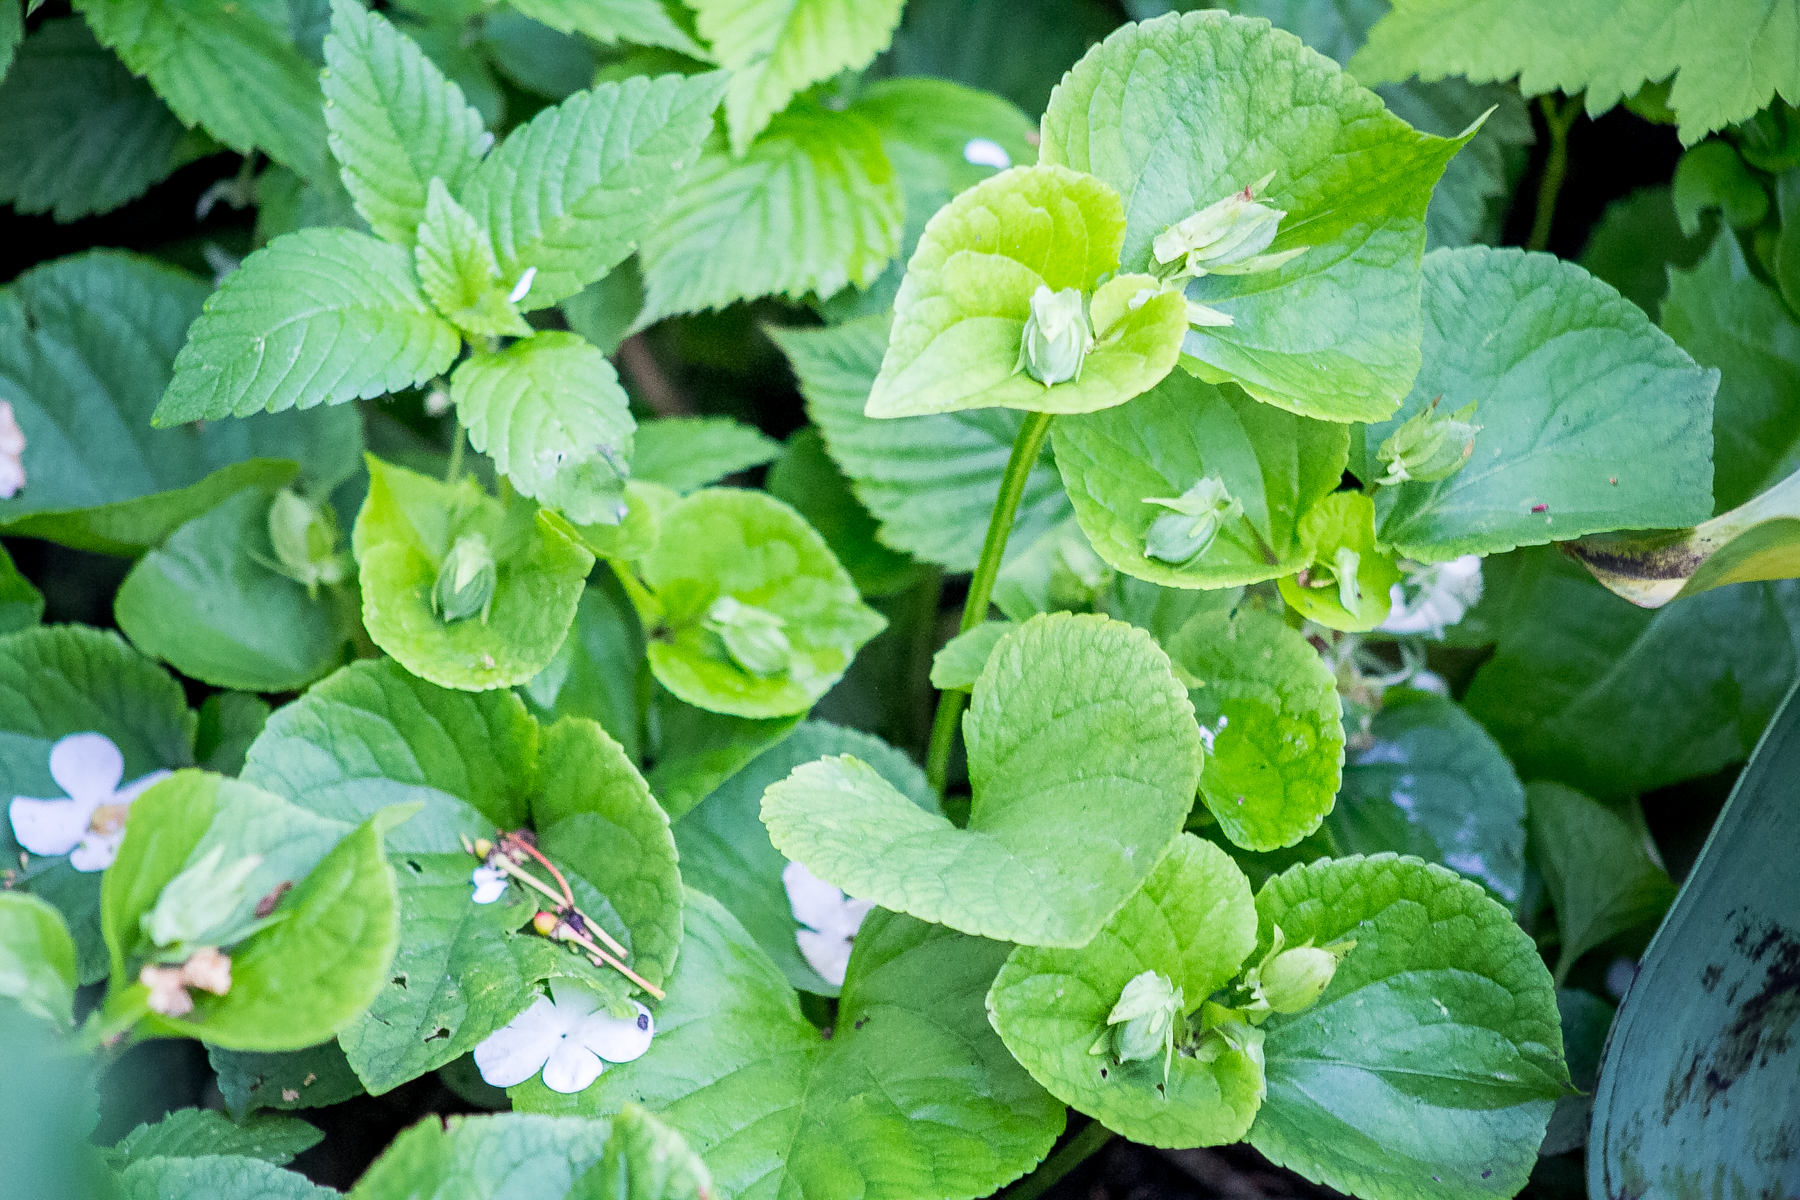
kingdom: Plantae
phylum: Tracheophyta
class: Magnoliopsida
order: Malpighiales
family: Violaceae
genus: Viola
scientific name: Viola mirabilis
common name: Wonder violet
